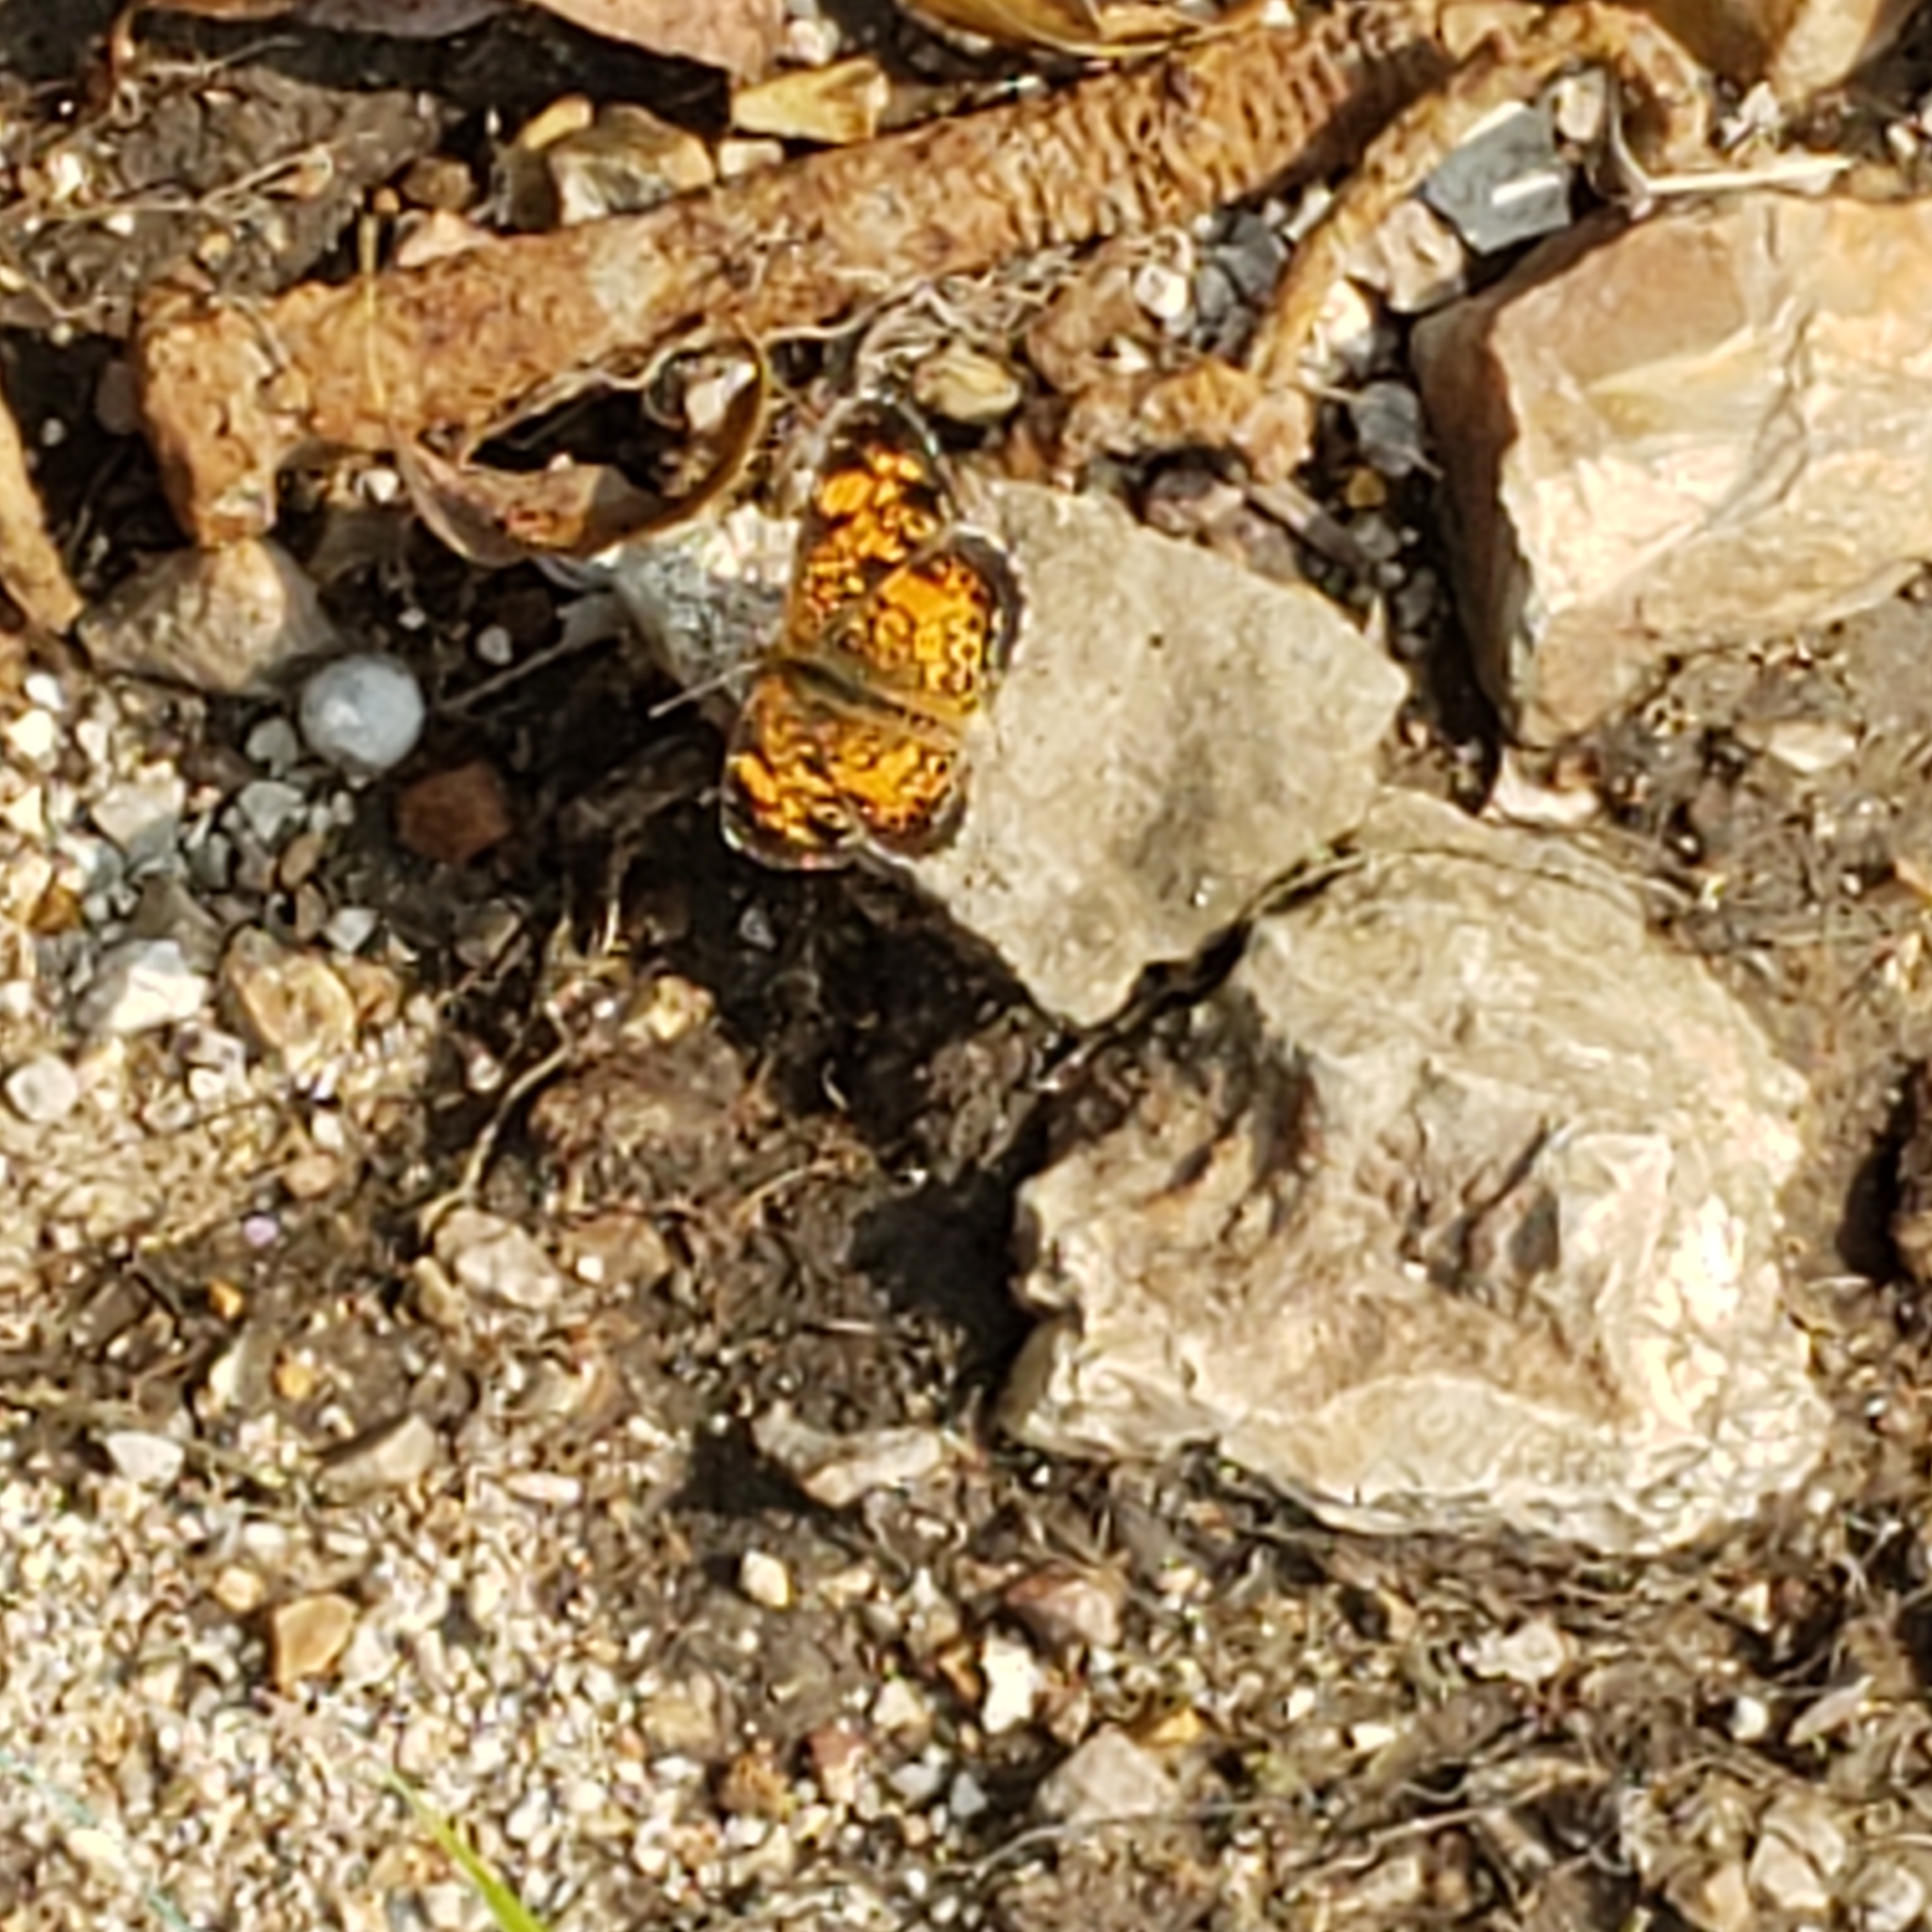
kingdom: Animalia
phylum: Arthropoda
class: Insecta
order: Lepidoptera
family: Nymphalidae
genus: Phyciodes
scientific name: Phyciodes tharos
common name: Pearl crescent
